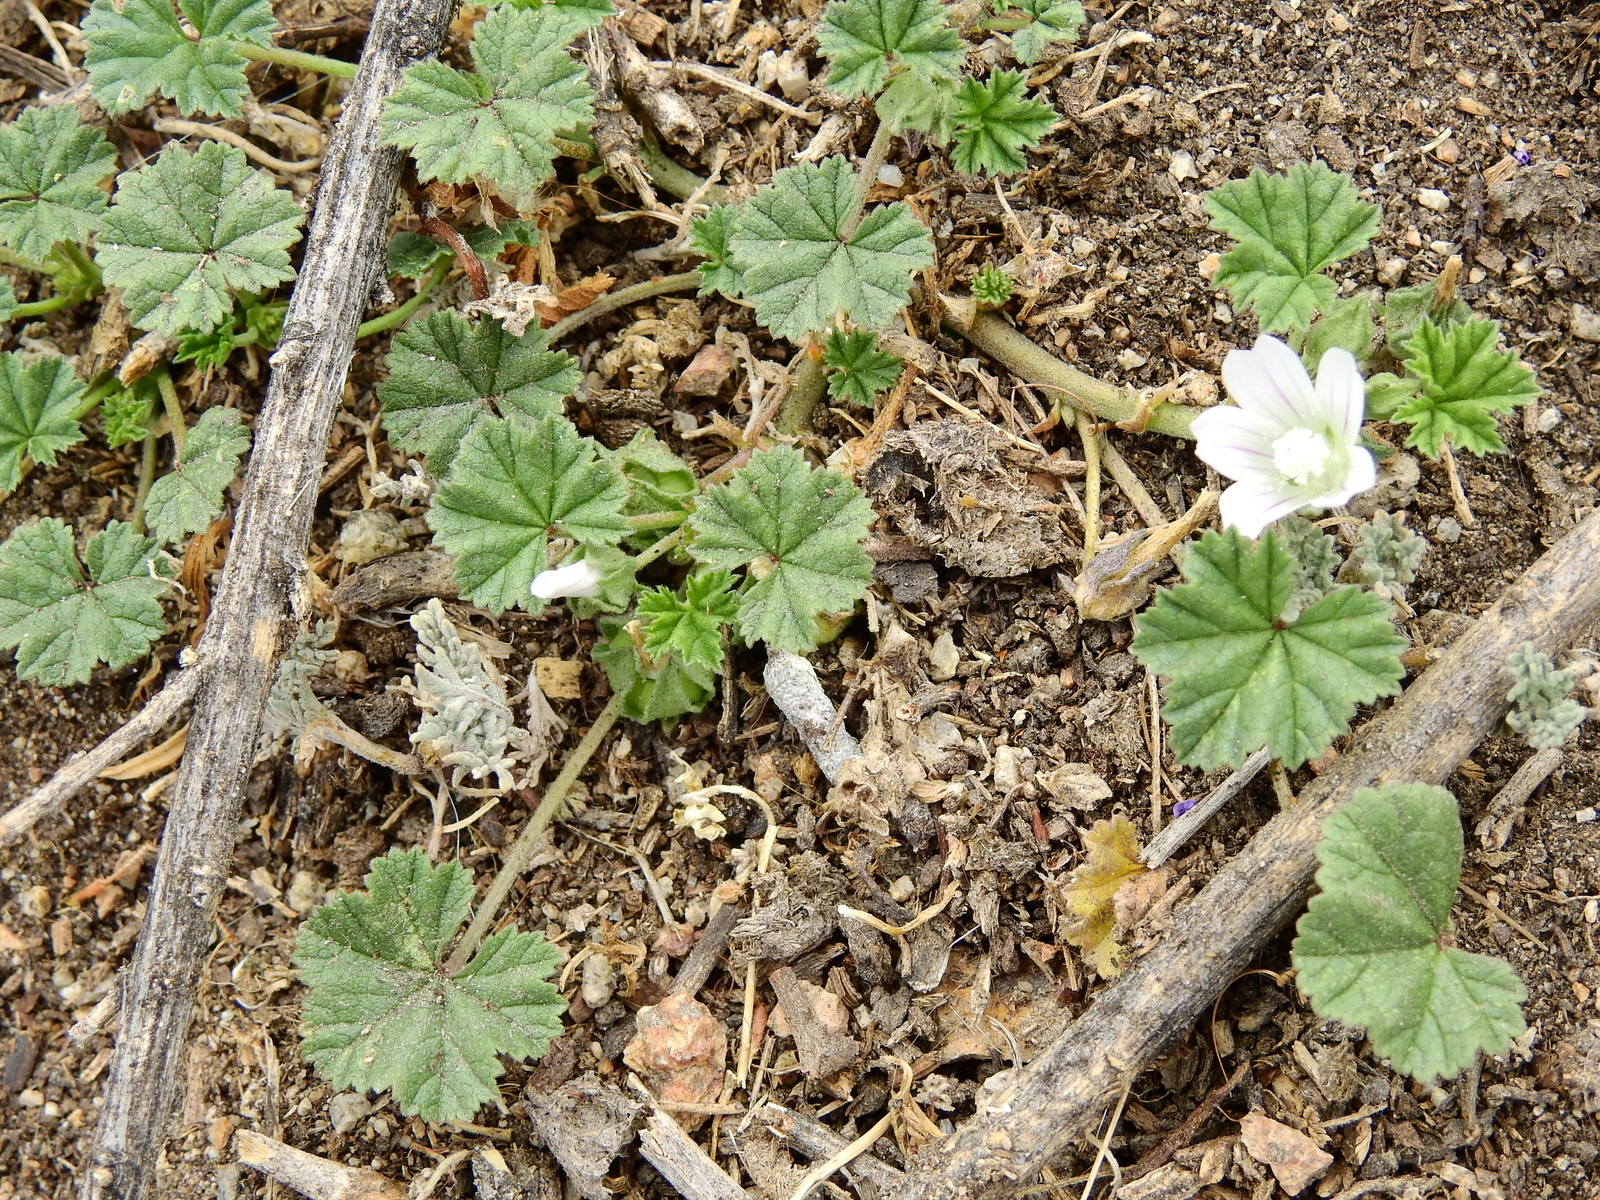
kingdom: Plantae
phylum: Tracheophyta
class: Magnoliopsida
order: Malvales
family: Malvaceae
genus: Malva
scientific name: Malva neglecta
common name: Common mallow
